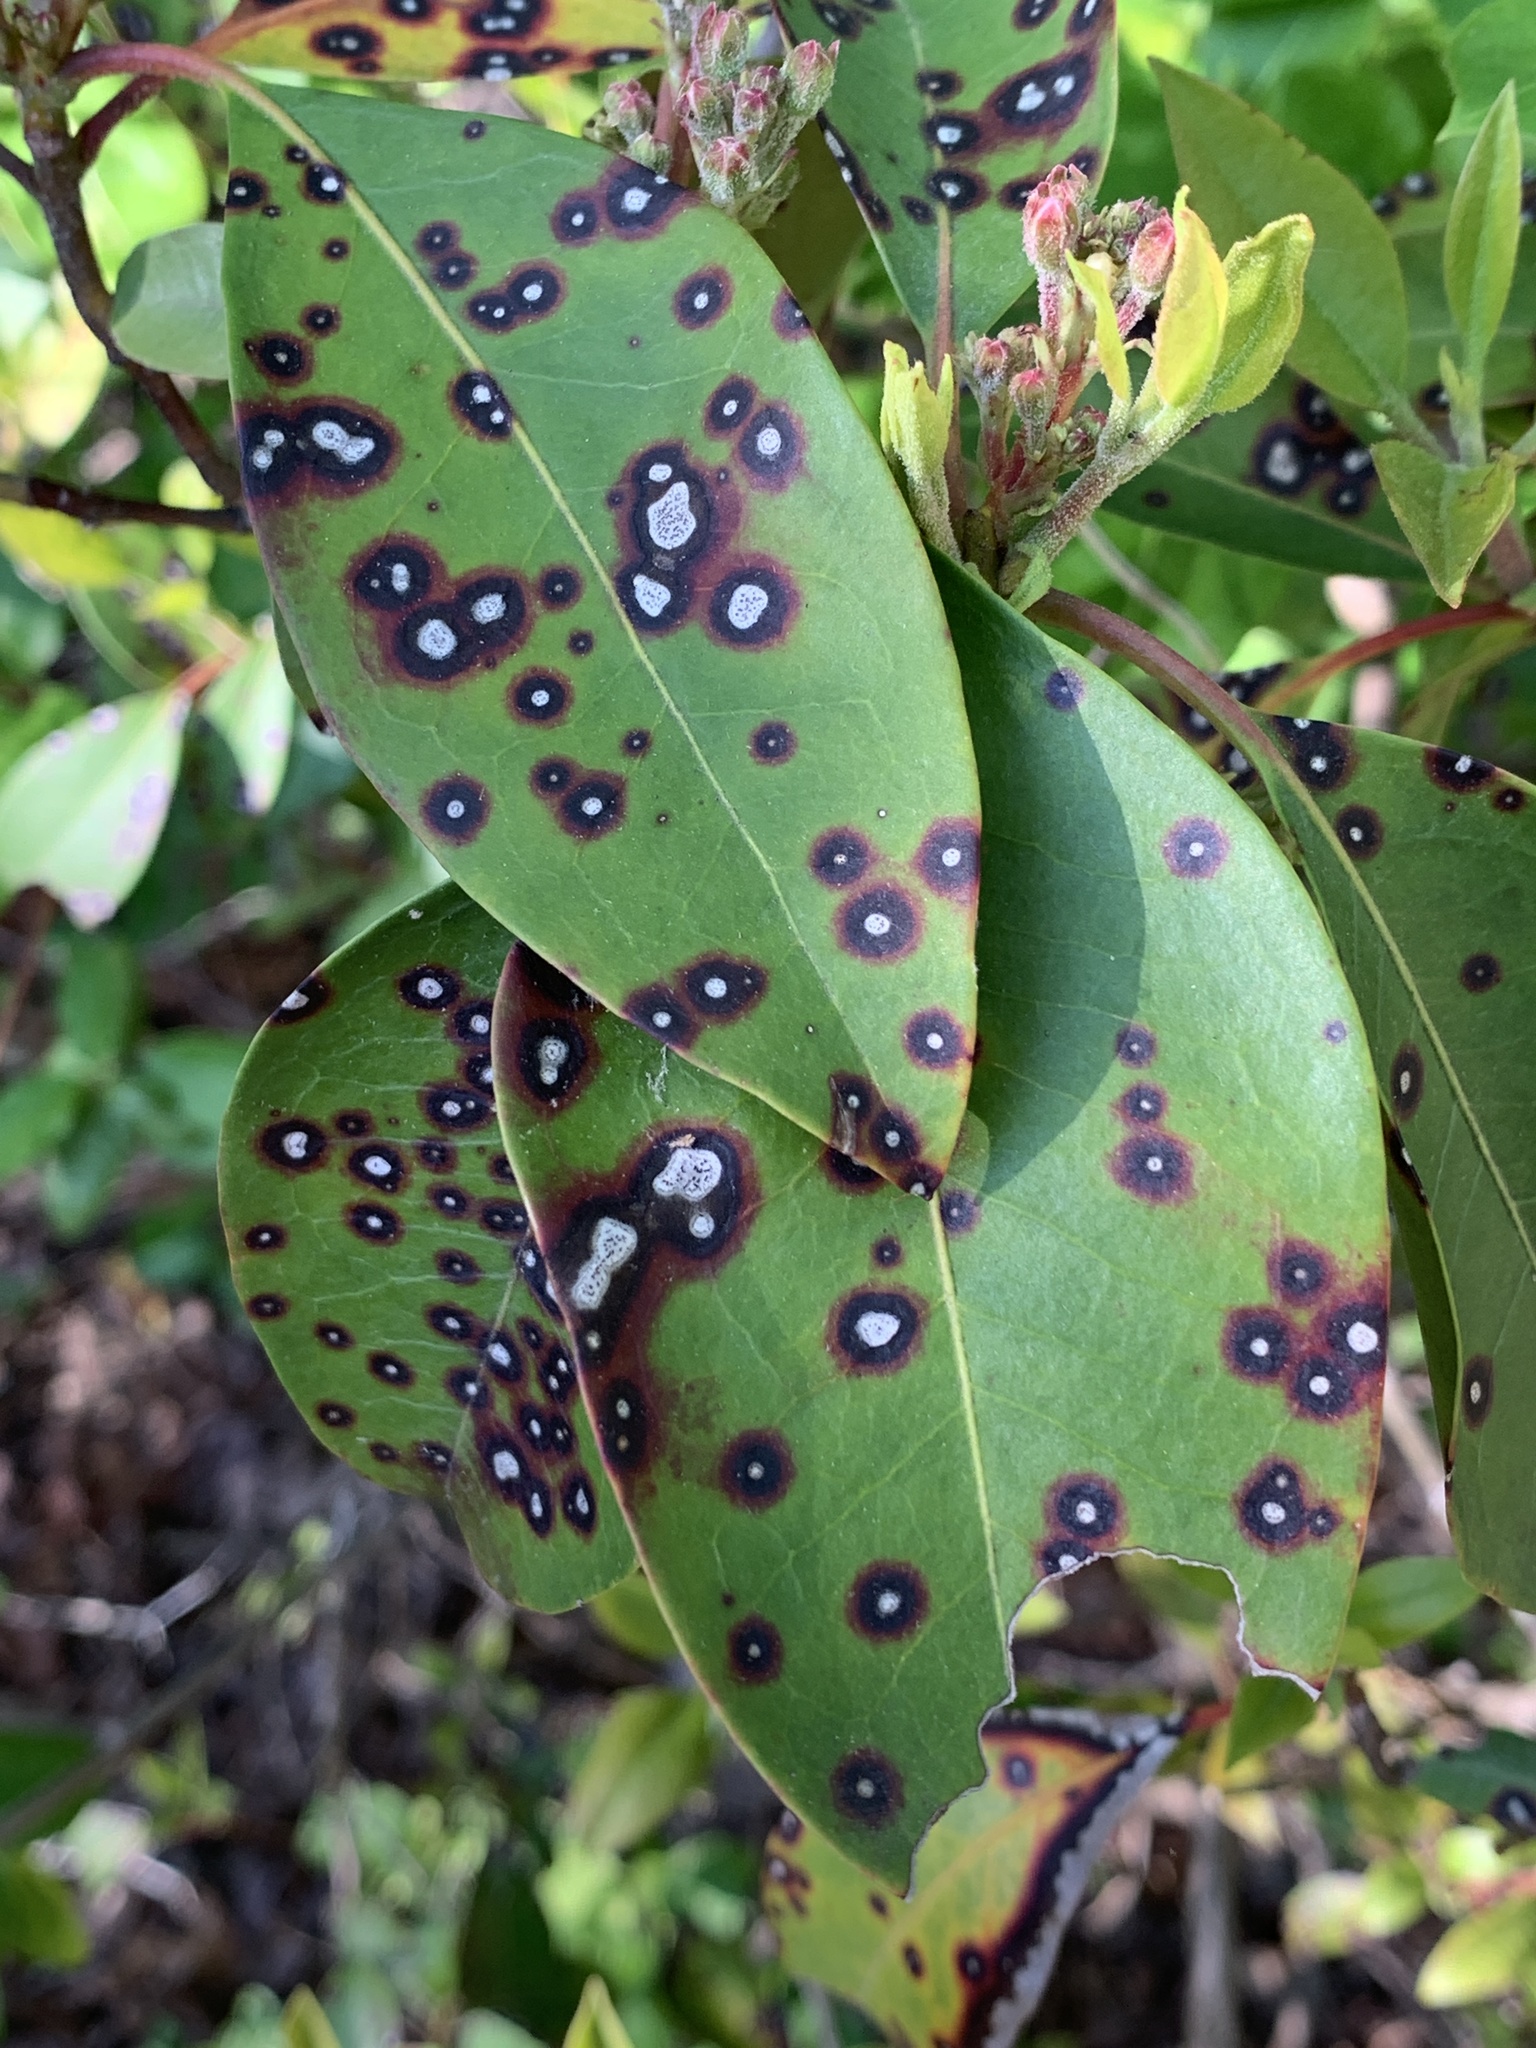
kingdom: Fungi
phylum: Ascomycota
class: Dothideomycetes
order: Mycosphaerellales
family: Mycosphaerellaceae
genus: Mycosphaerella
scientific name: Mycosphaerella colorata
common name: Mountain laurel leaf spot
